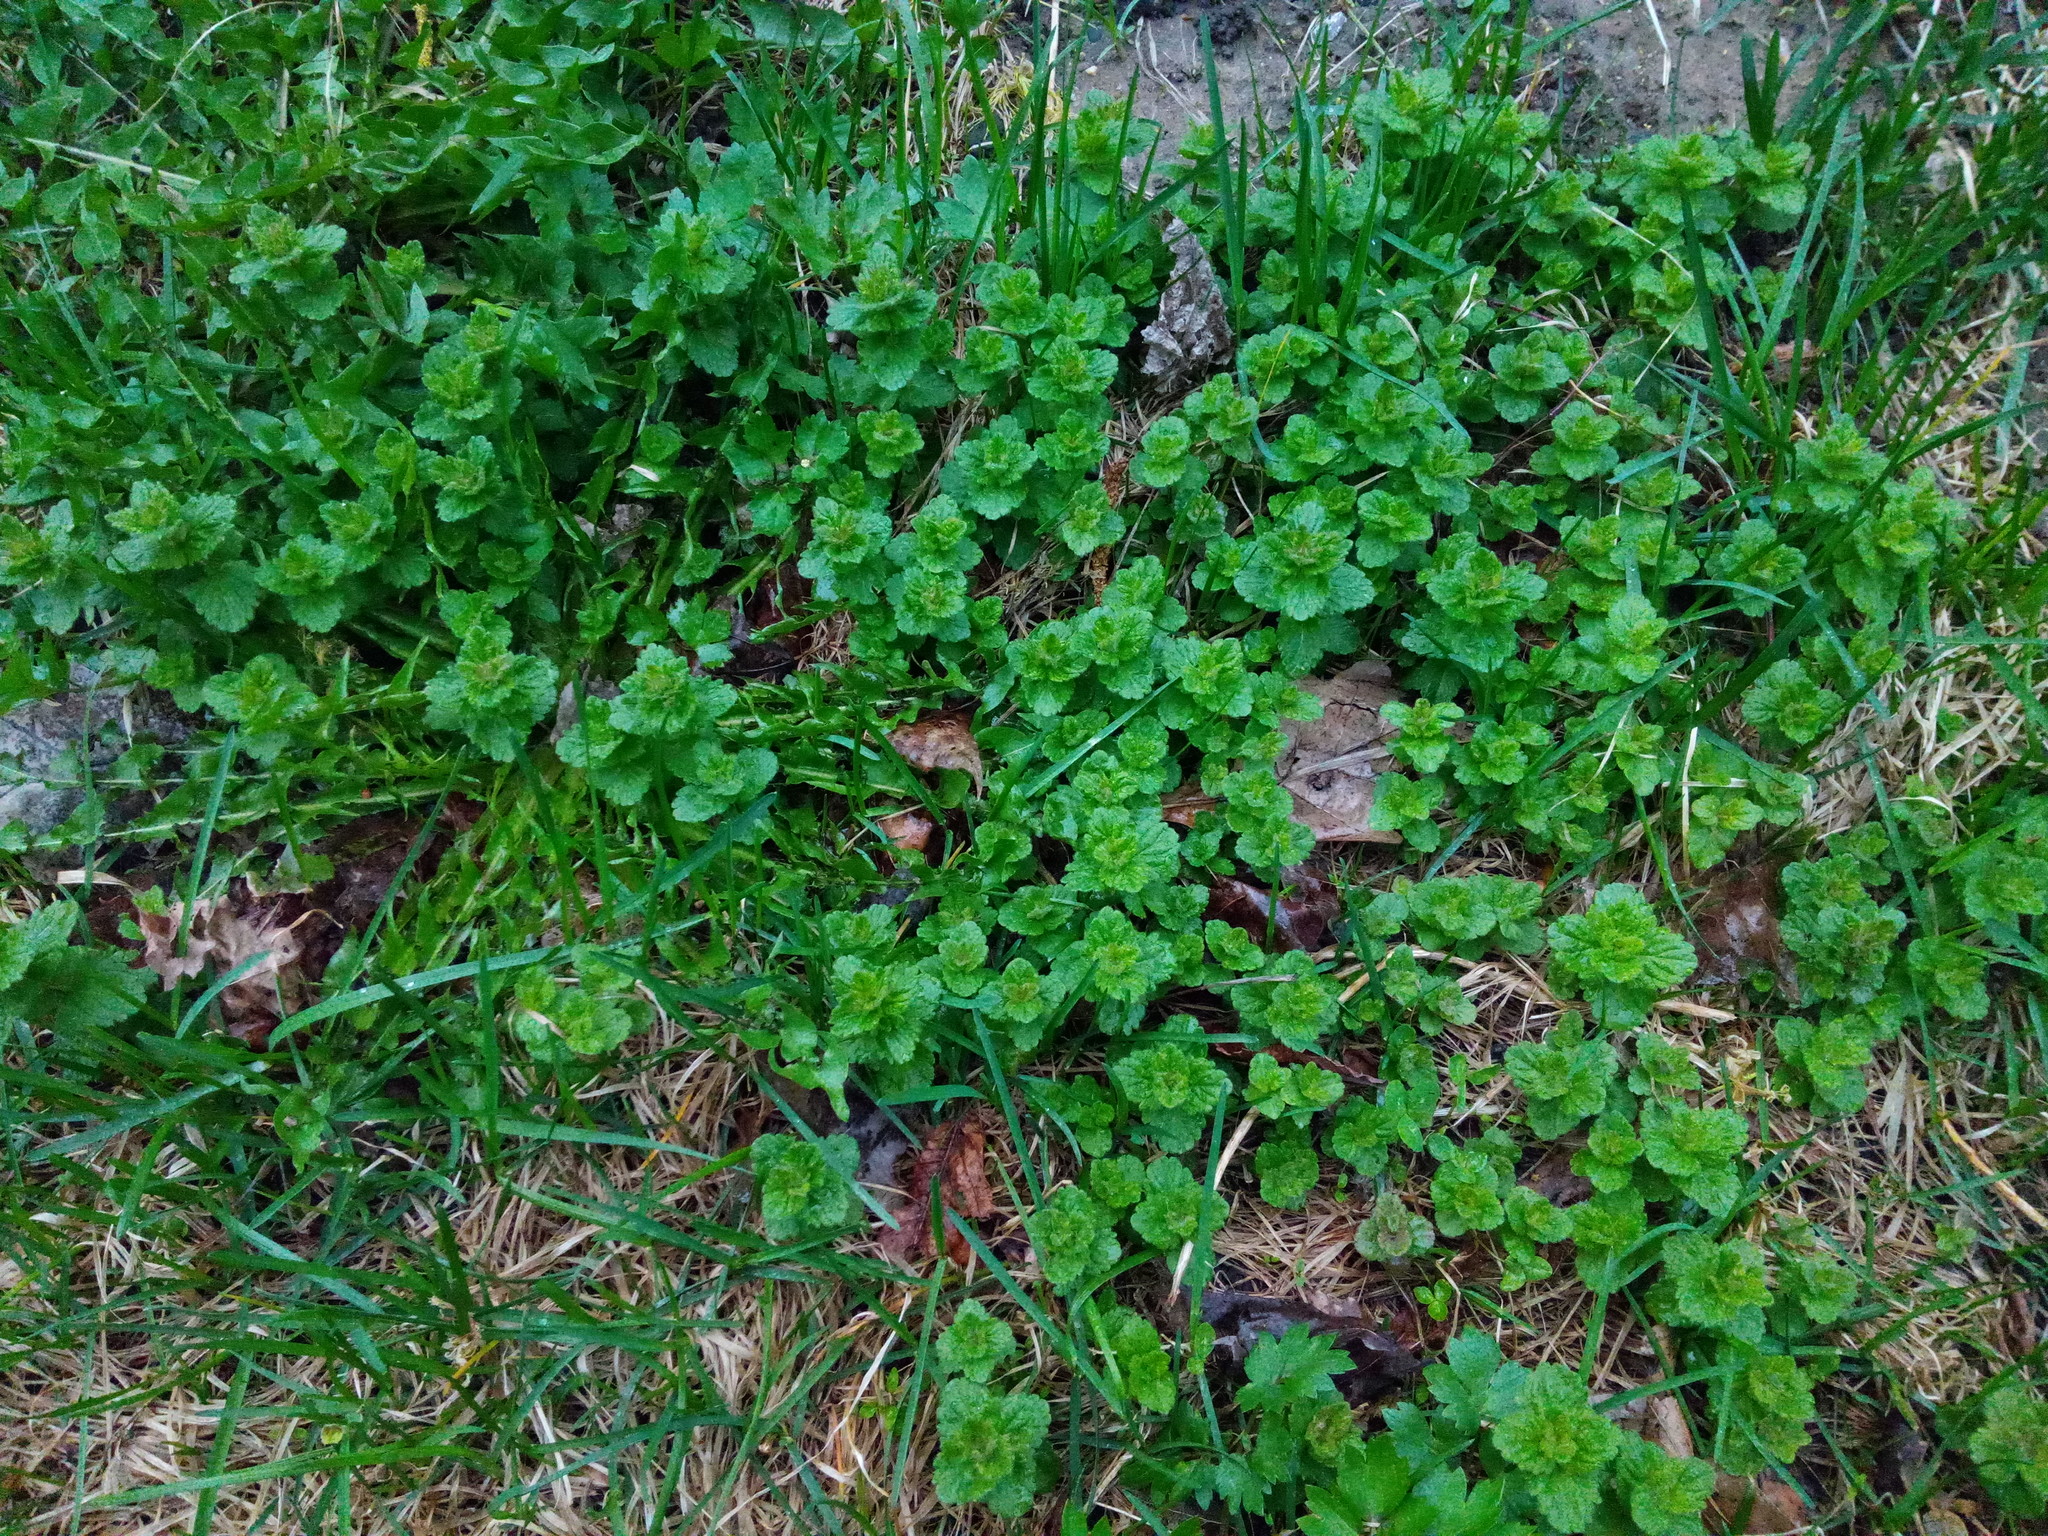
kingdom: Plantae
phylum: Tracheophyta
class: Magnoliopsida
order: Lamiales
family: Plantaginaceae
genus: Veronica
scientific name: Veronica chamaedrys
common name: Germander speedwell
